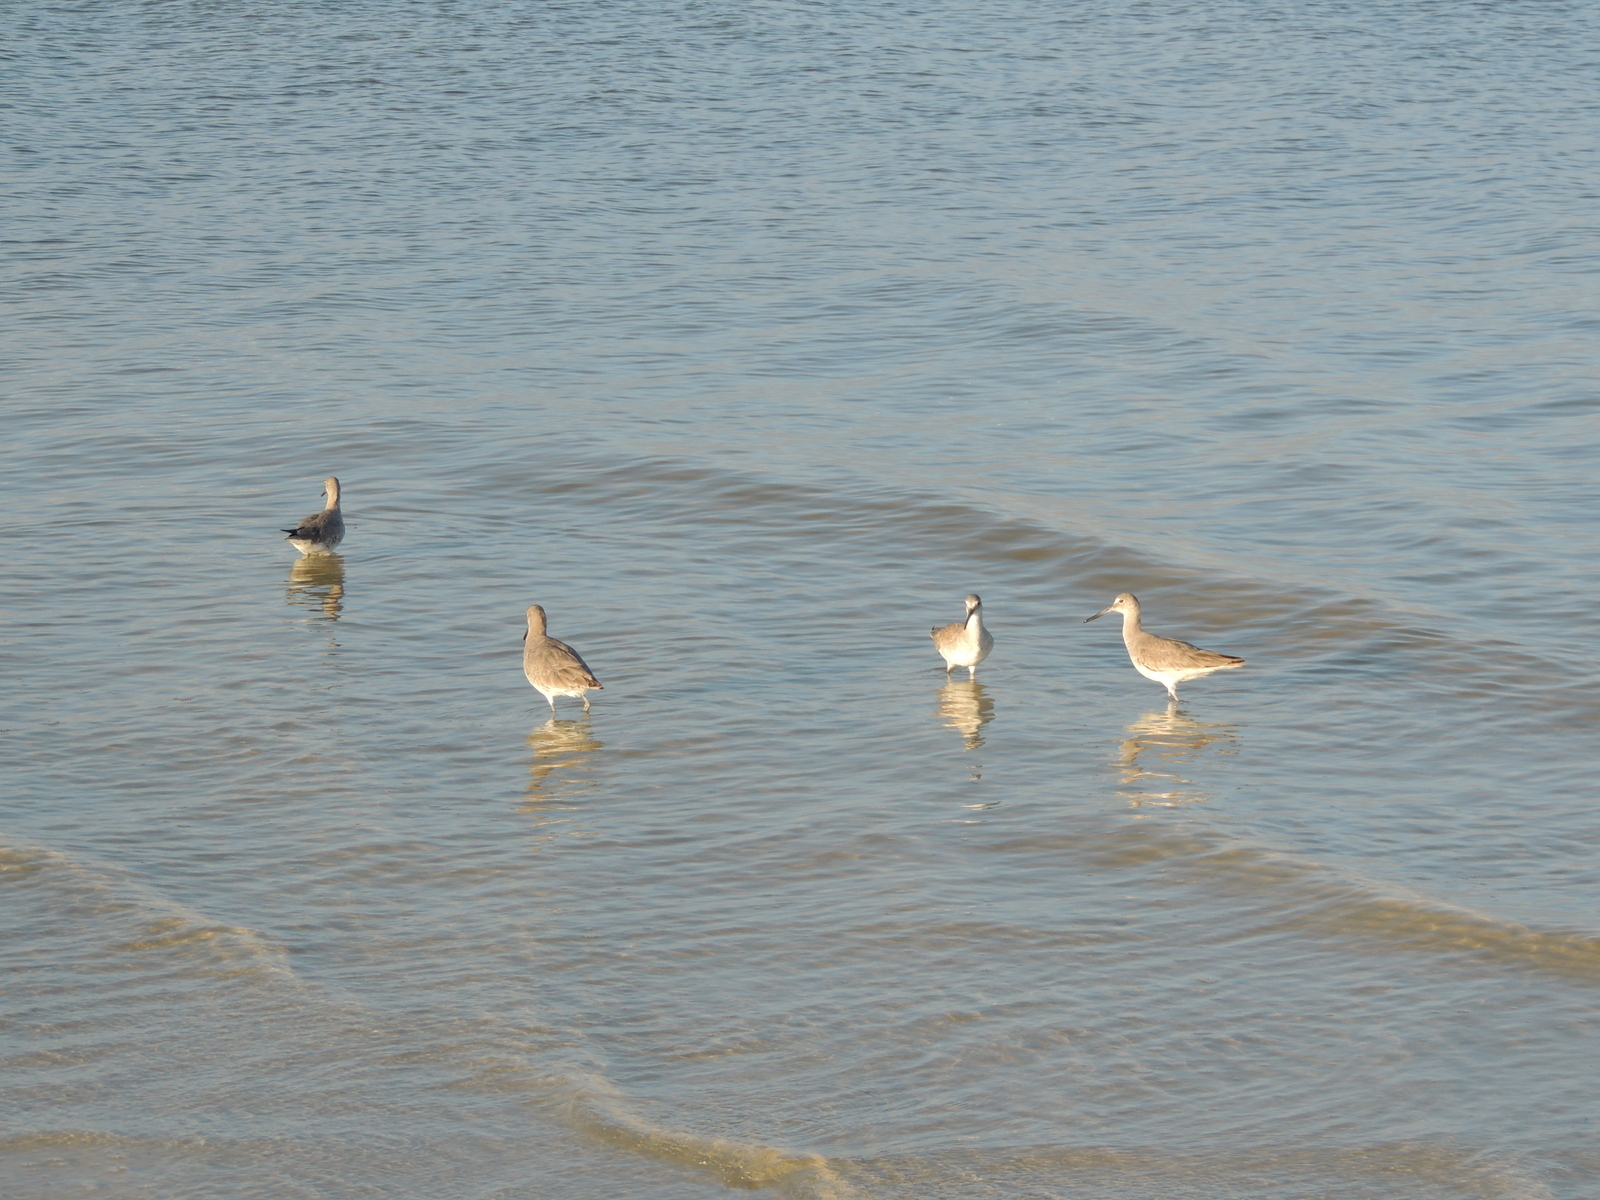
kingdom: Animalia
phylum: Chordata
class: Aves
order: Charadriiformes
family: Scolopacidae
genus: Tringa
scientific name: Tringa semipalmata
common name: Willet
